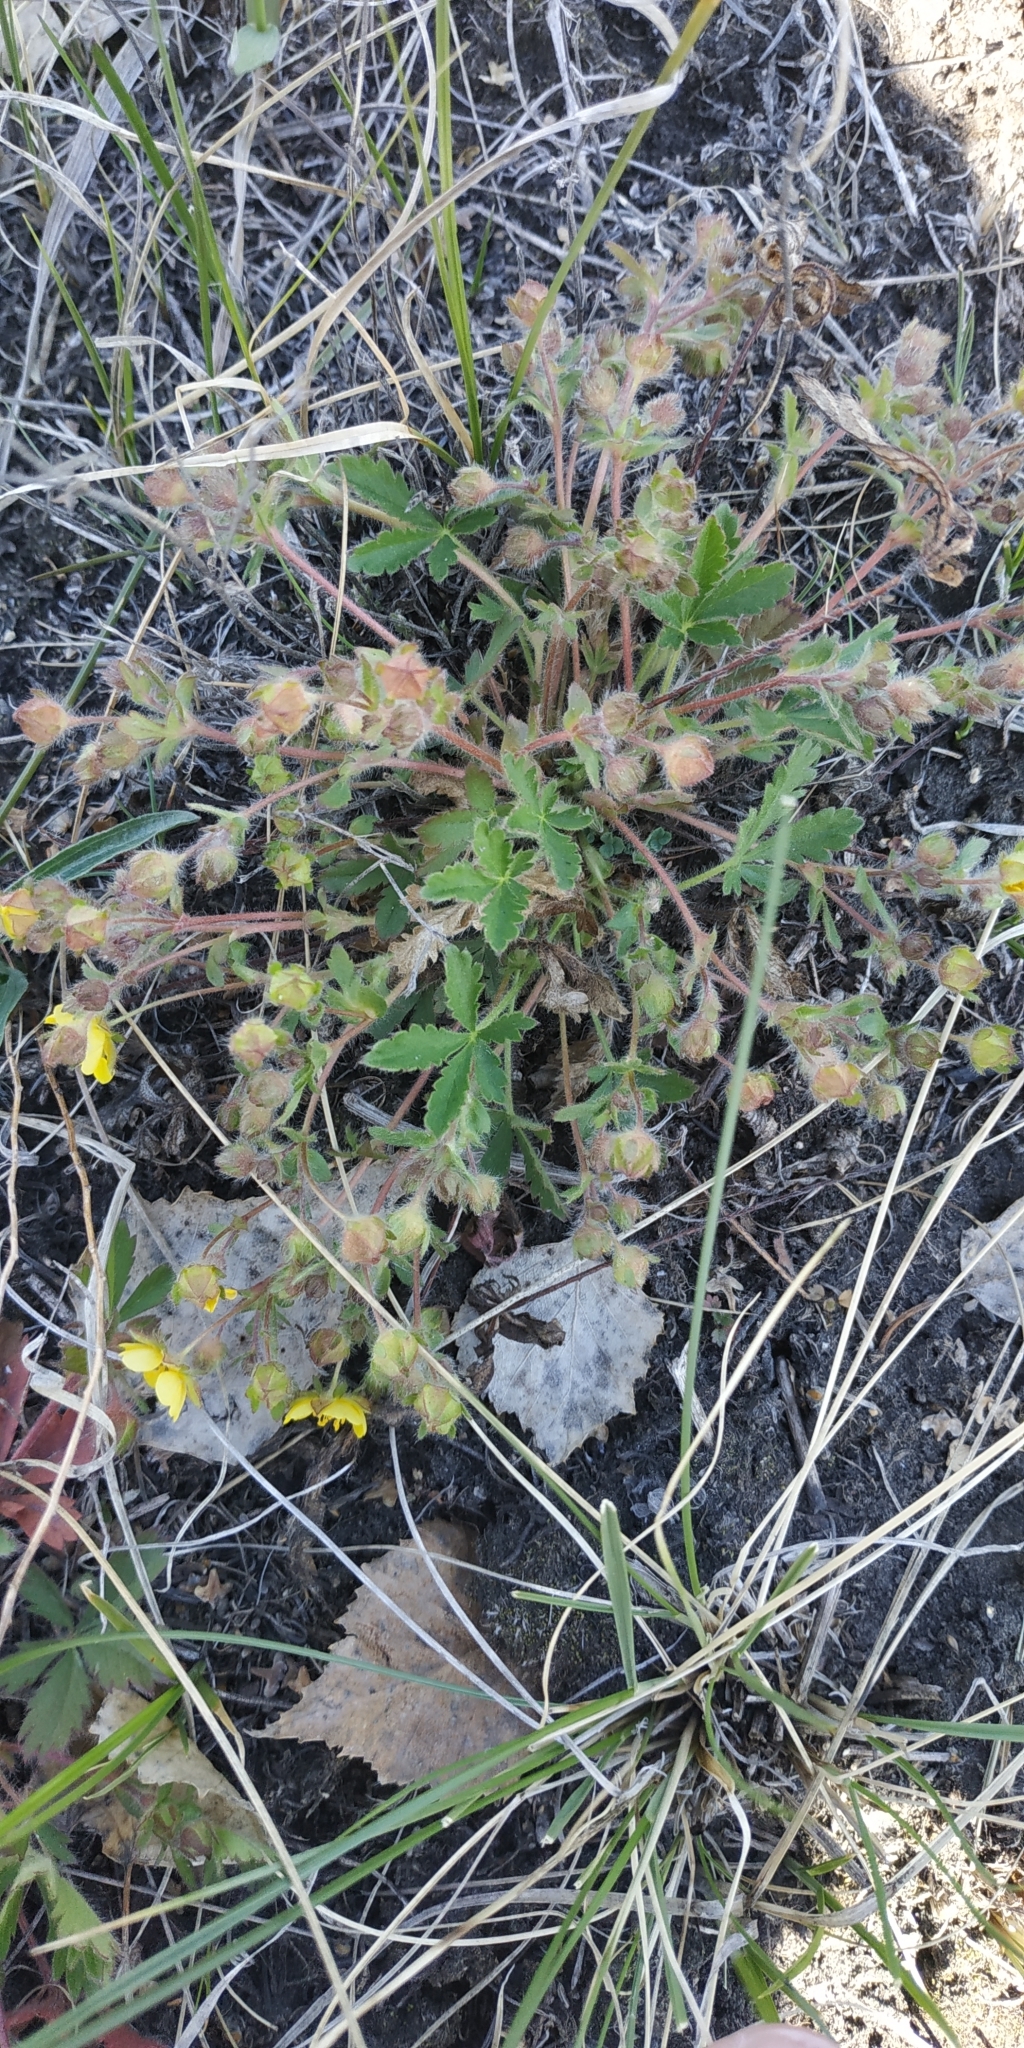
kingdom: Plantae
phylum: Tracheophyta
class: Magnoliopsida
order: Rosales
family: Rosaceae
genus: Potentilla
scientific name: Potentilla humifusa
